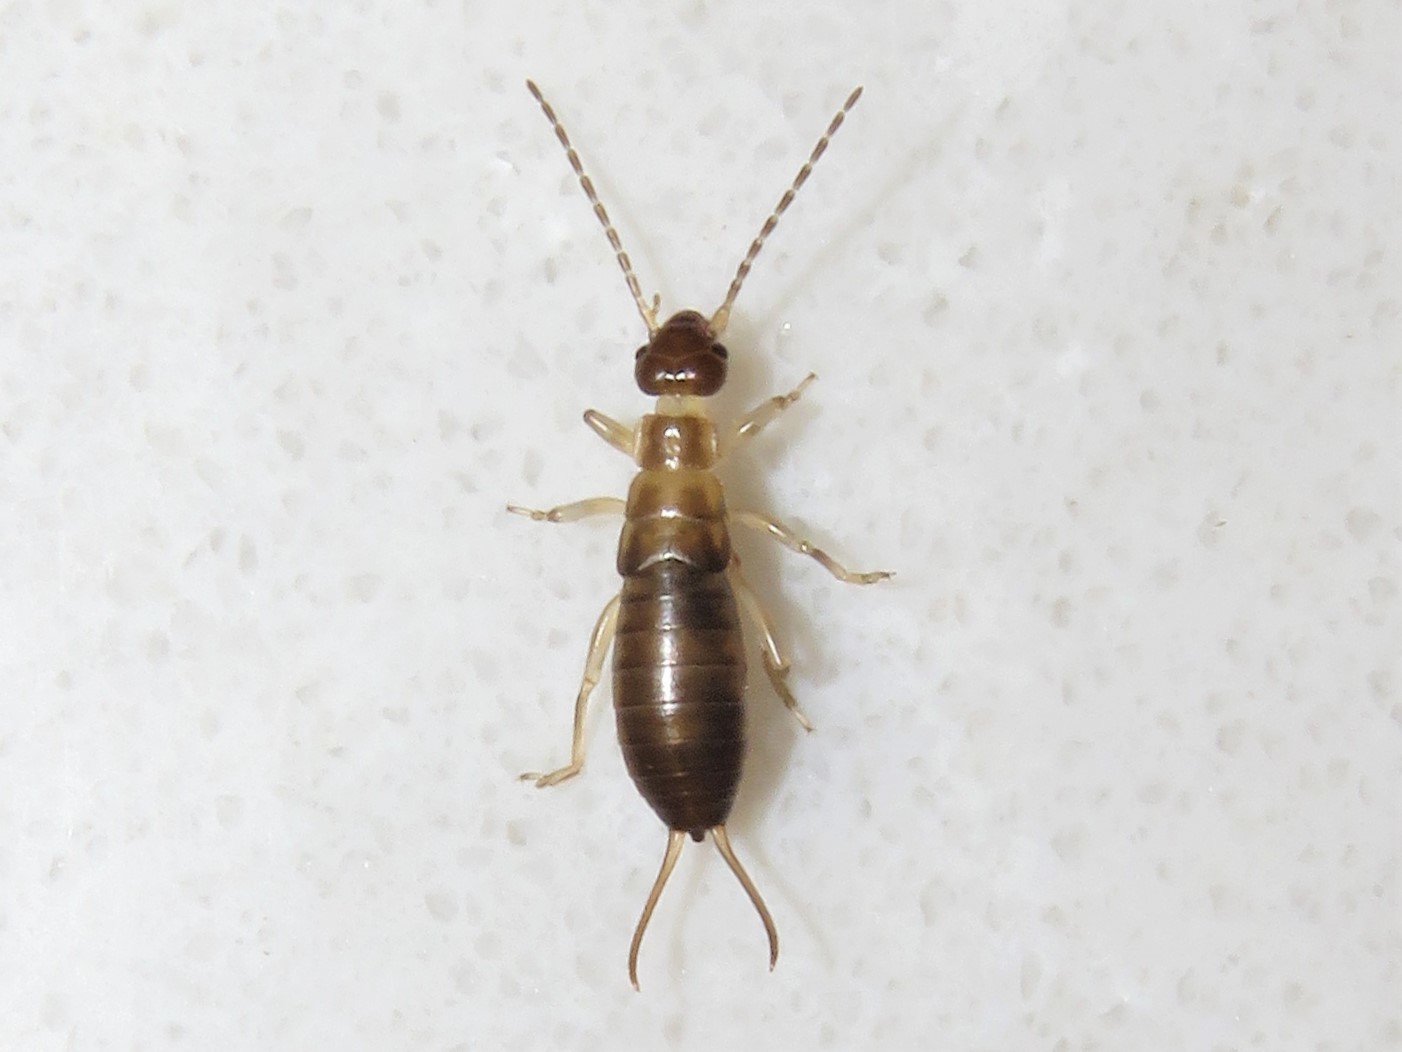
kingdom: Animalia
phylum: Arthropoda
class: Insecta
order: Dermaptera
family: Forficulidae
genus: Forficula
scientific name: Forficula
